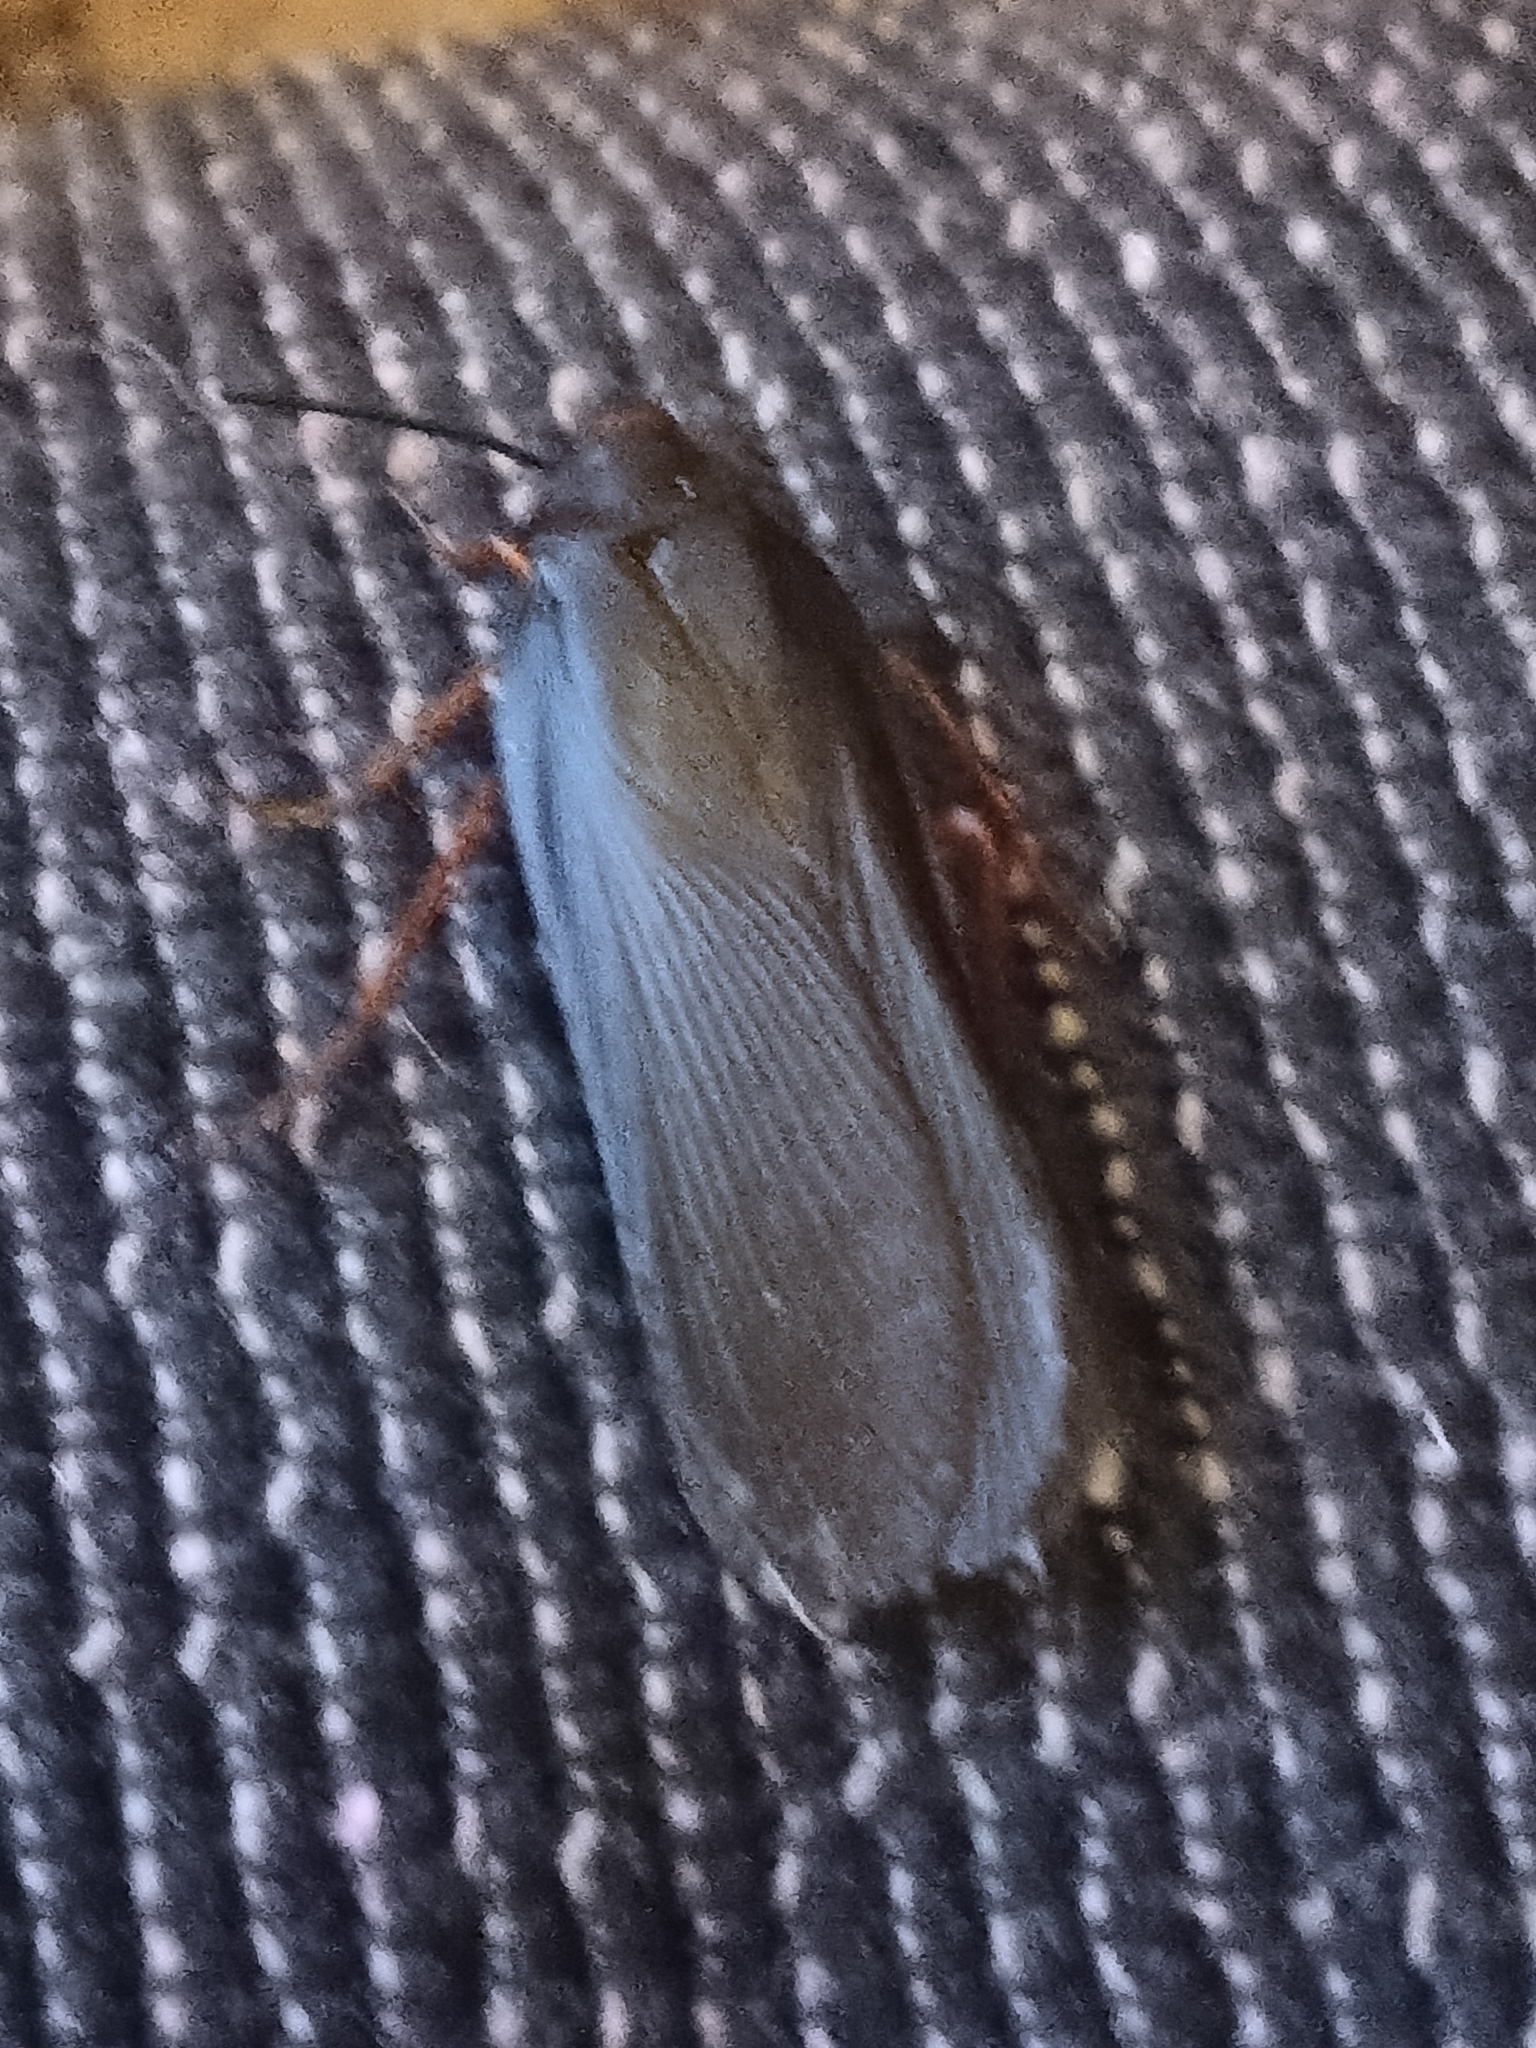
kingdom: Animalia
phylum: Arthropoda
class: Insecta
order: Blattodea
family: Blattidae
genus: Deropeltis
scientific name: Deropeltis erythrocephala
